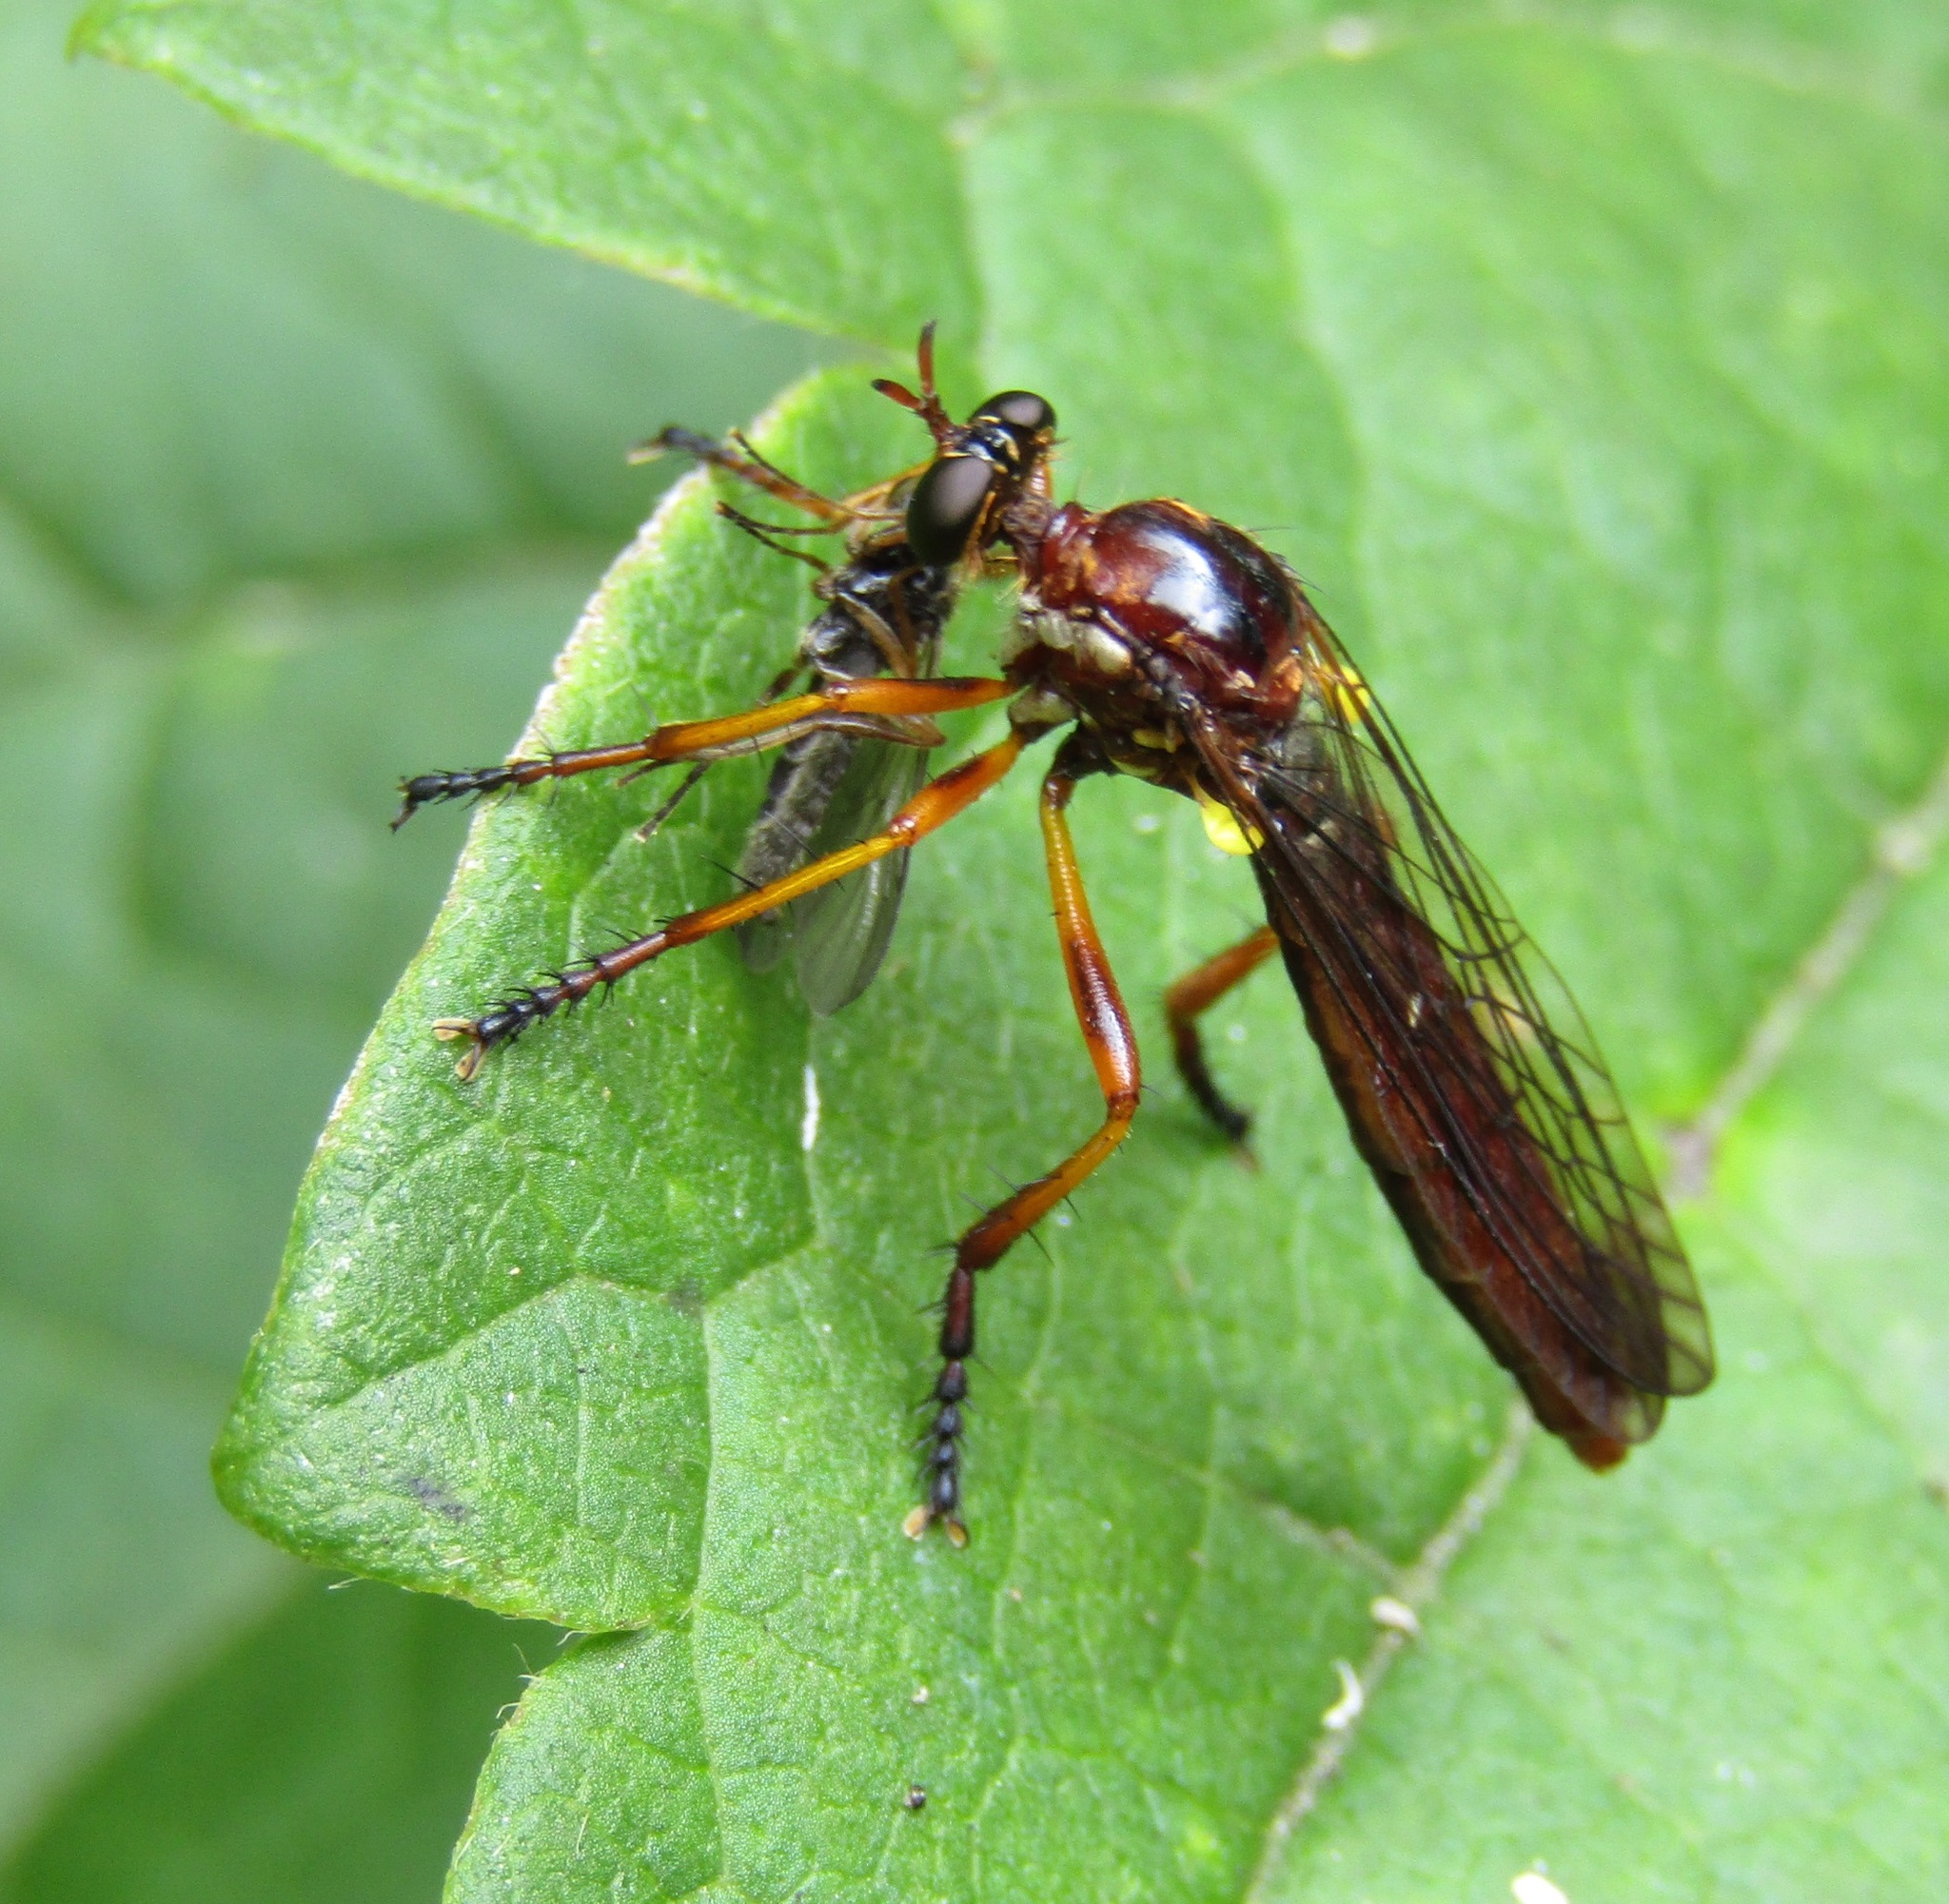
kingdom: Animalia
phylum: Arthropoda
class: Insecta
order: Diptera
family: Asilidae
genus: Saropogon
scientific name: Saropogon antipodus
